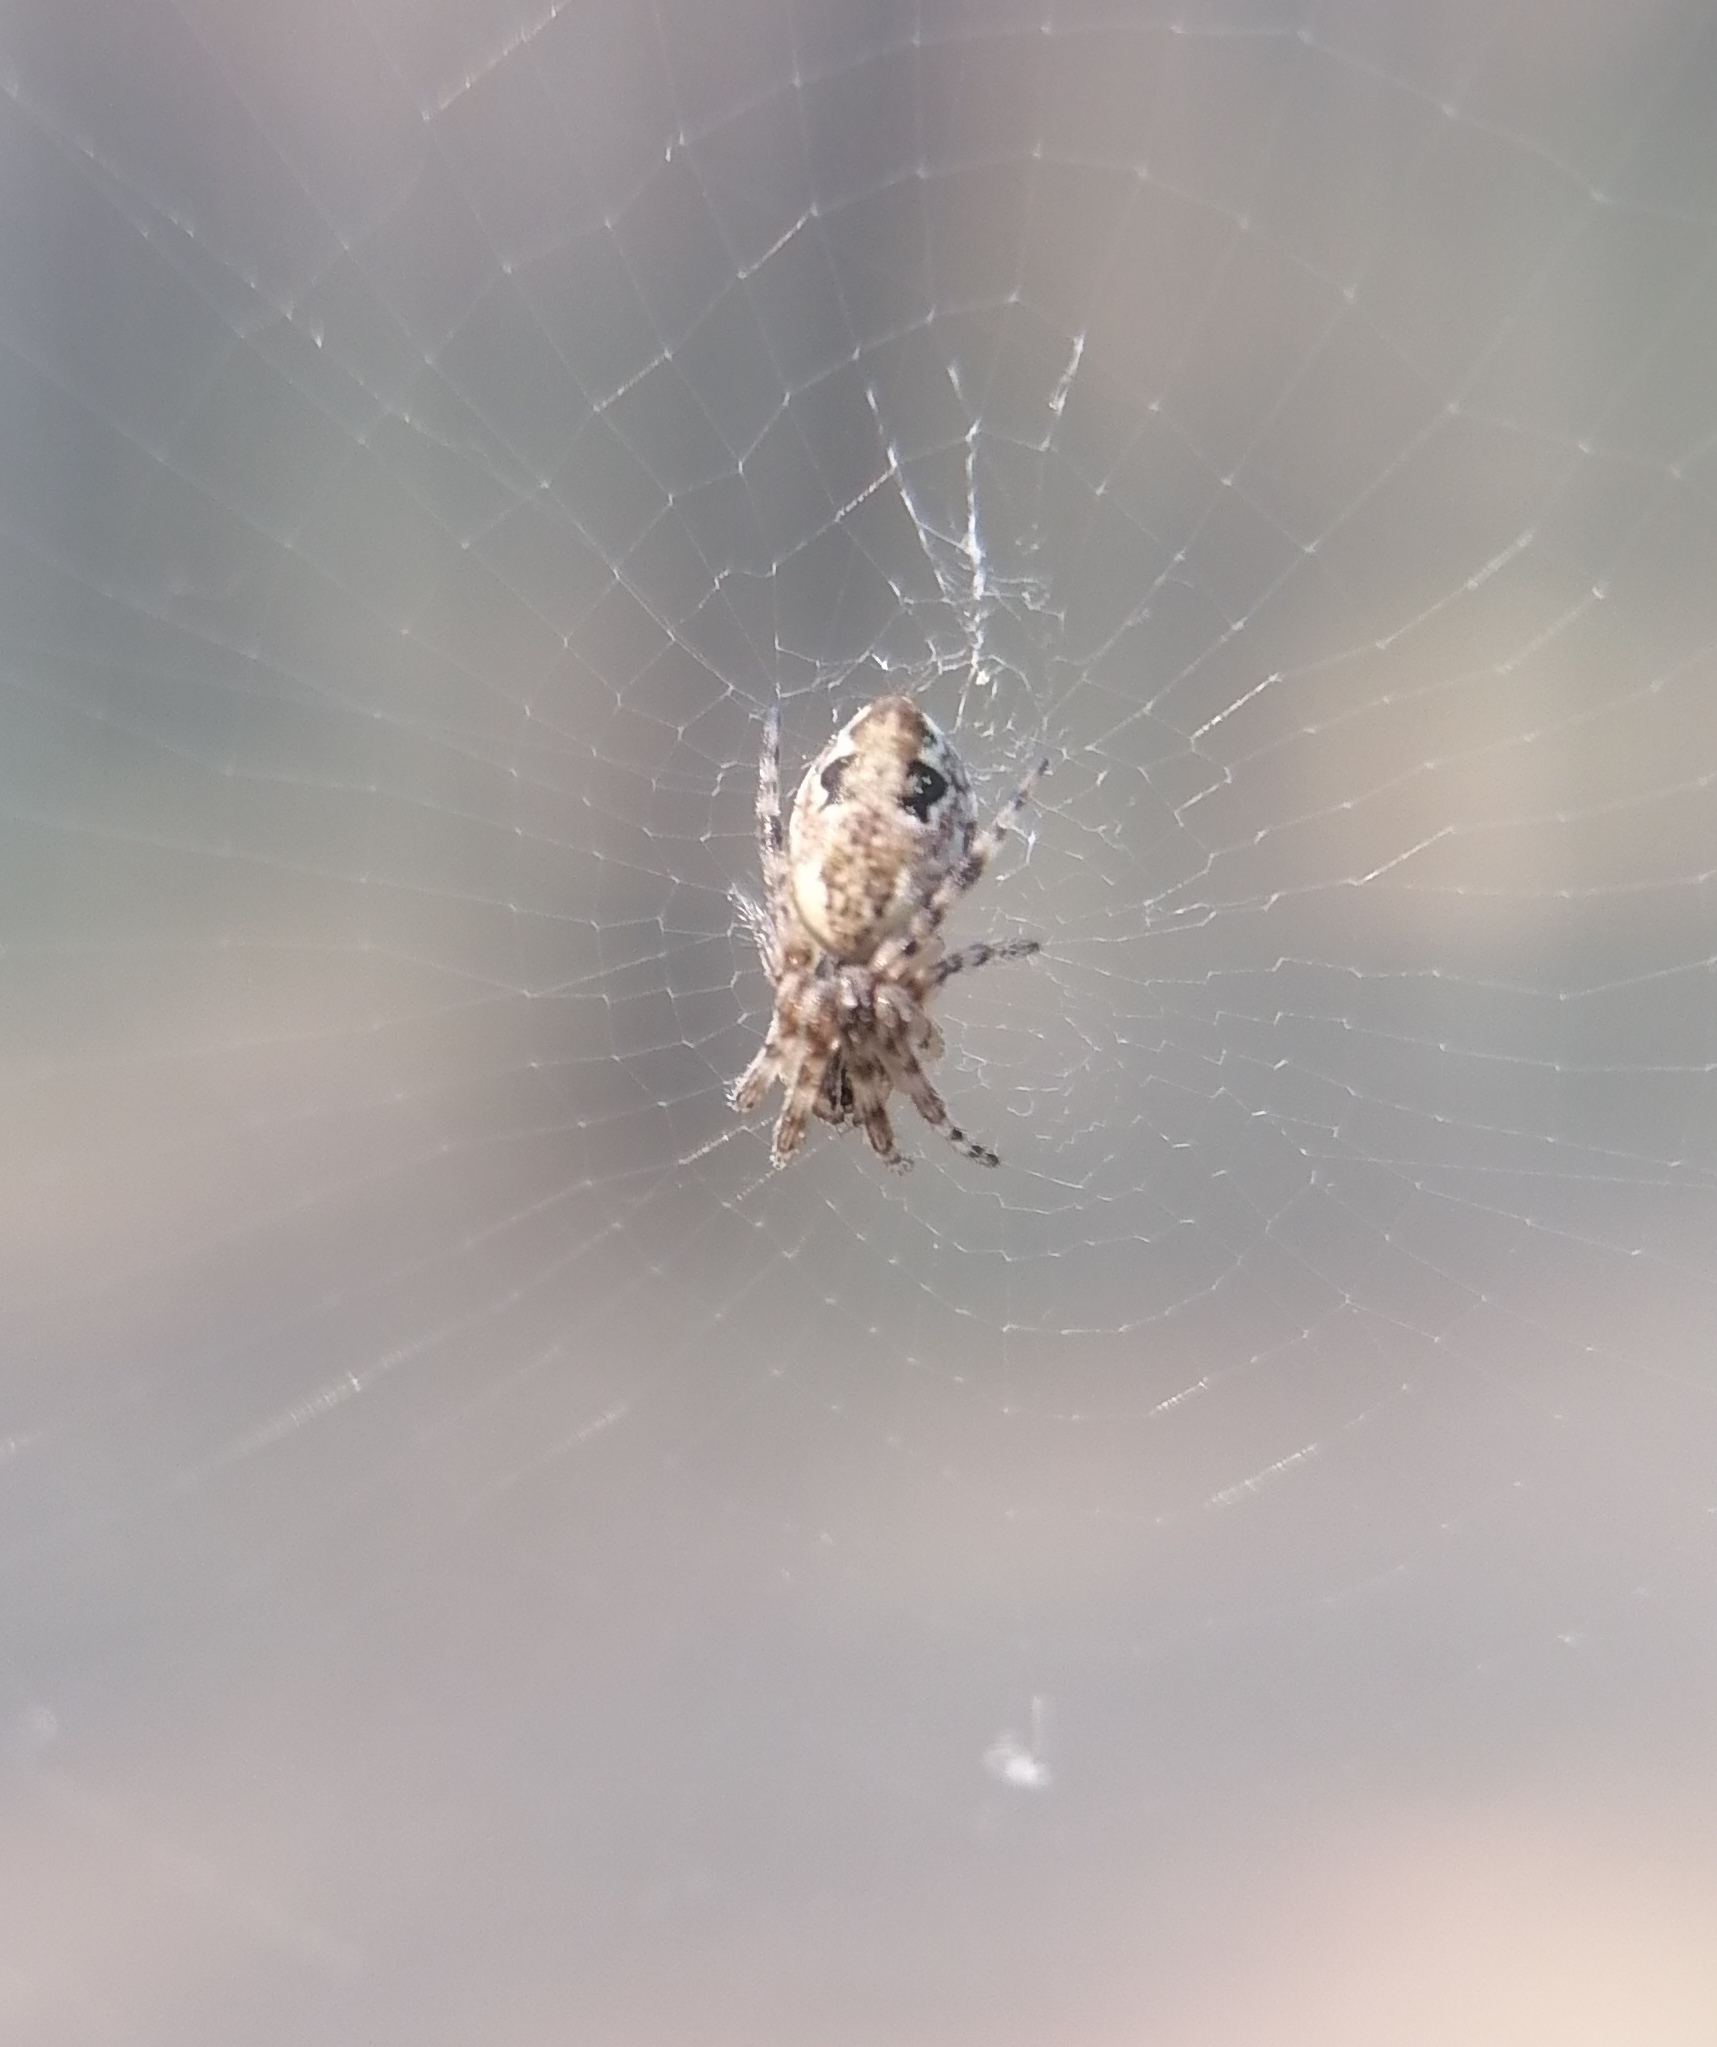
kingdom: Animalia
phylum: Arthropoda
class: Arachnida
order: Araneae
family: Araneidae
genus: Cyclosa
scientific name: Cyclosa conica
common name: Conical trashline orbweaver
